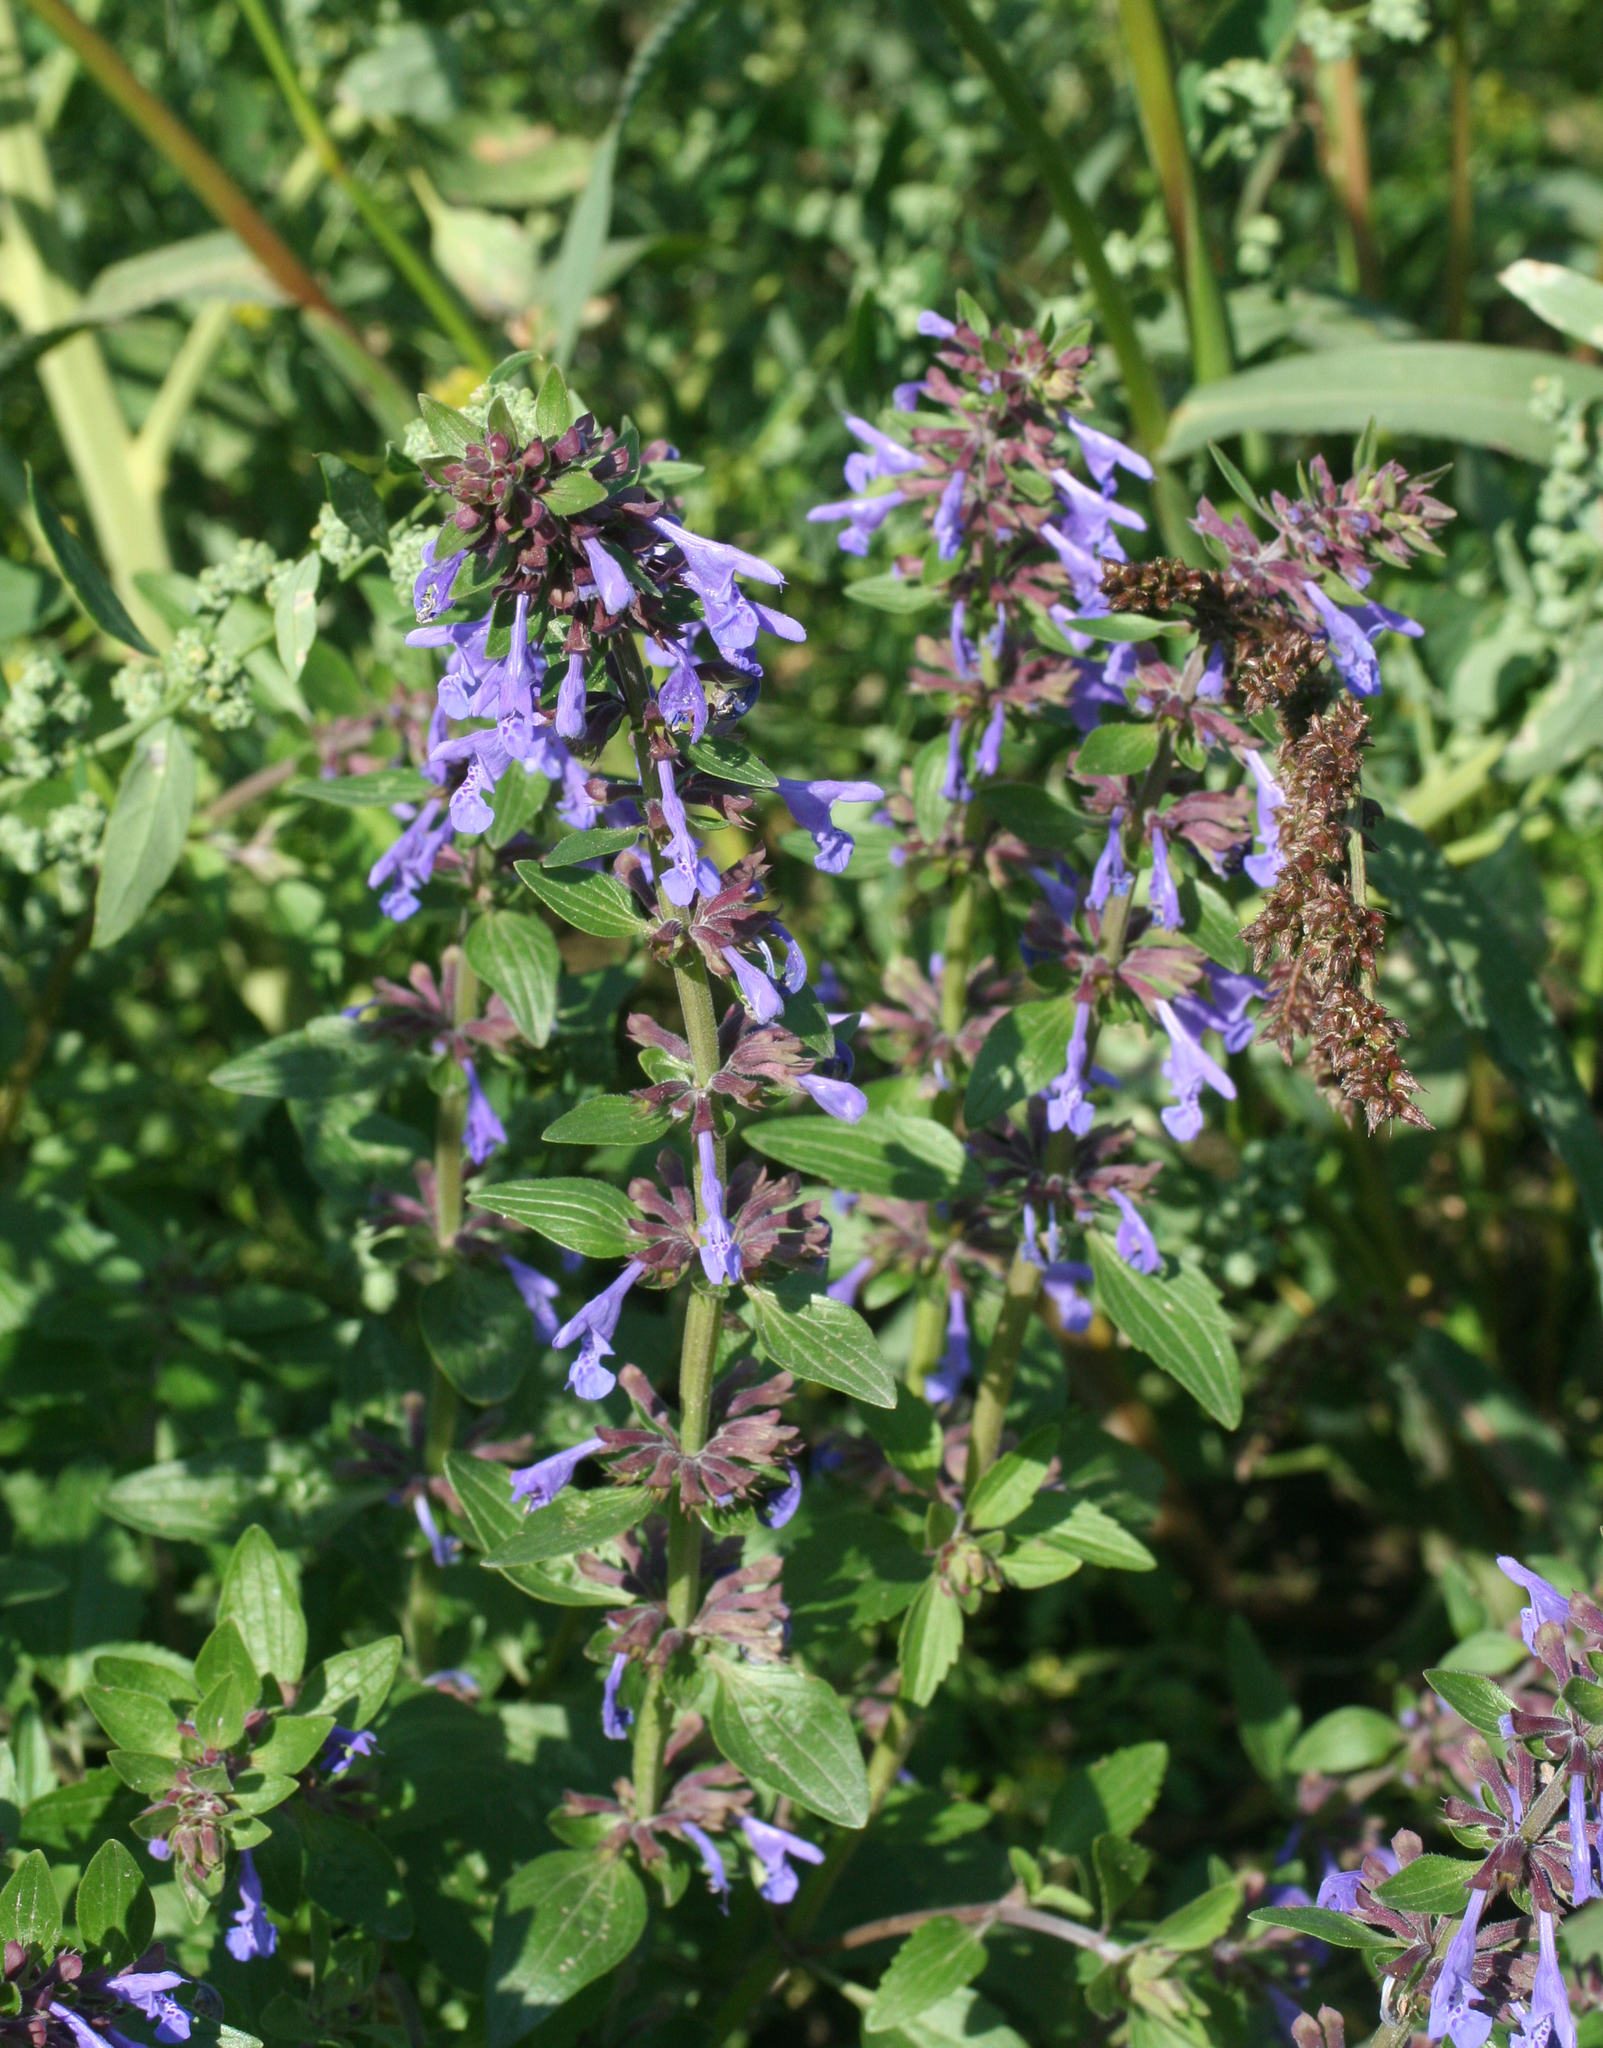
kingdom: Plantae
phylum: Tracheophyta
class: Magnoliopsida
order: Lamiales
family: Lamiaceae
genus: Dracocephalum
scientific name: Dracocephalum nutans
